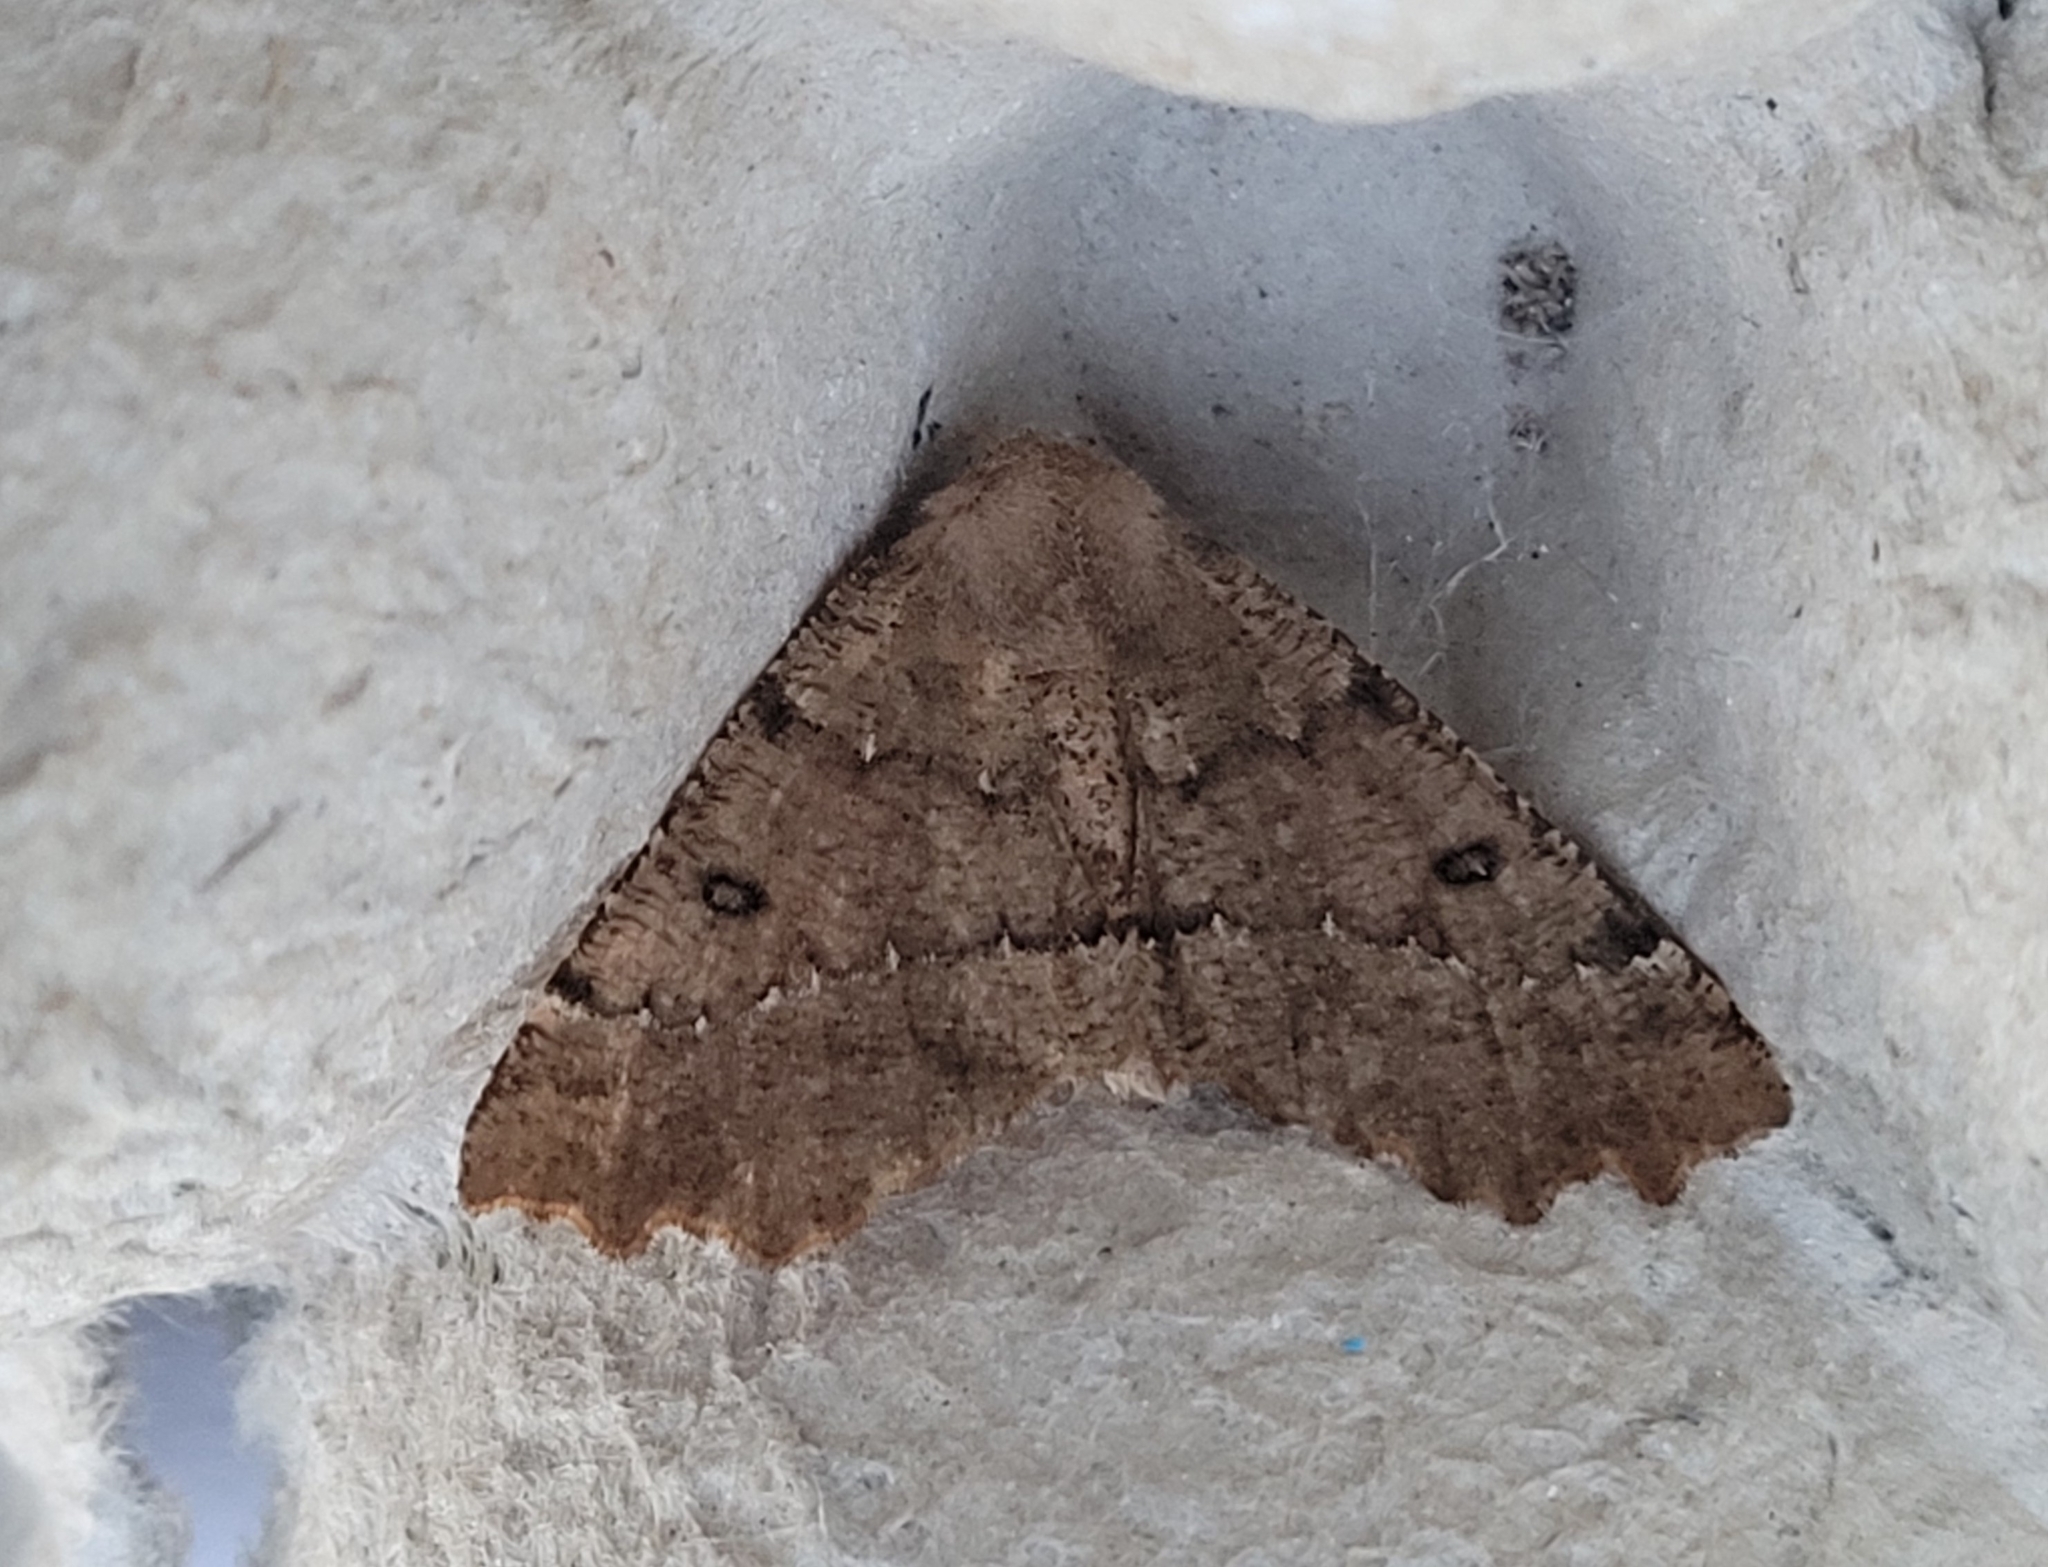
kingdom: Animalia
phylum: Arthropoda
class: Insecta
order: Lepidoptera
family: Geometridae
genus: Odontopera
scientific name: Odontopera bidentata
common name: Scalloped hazel
